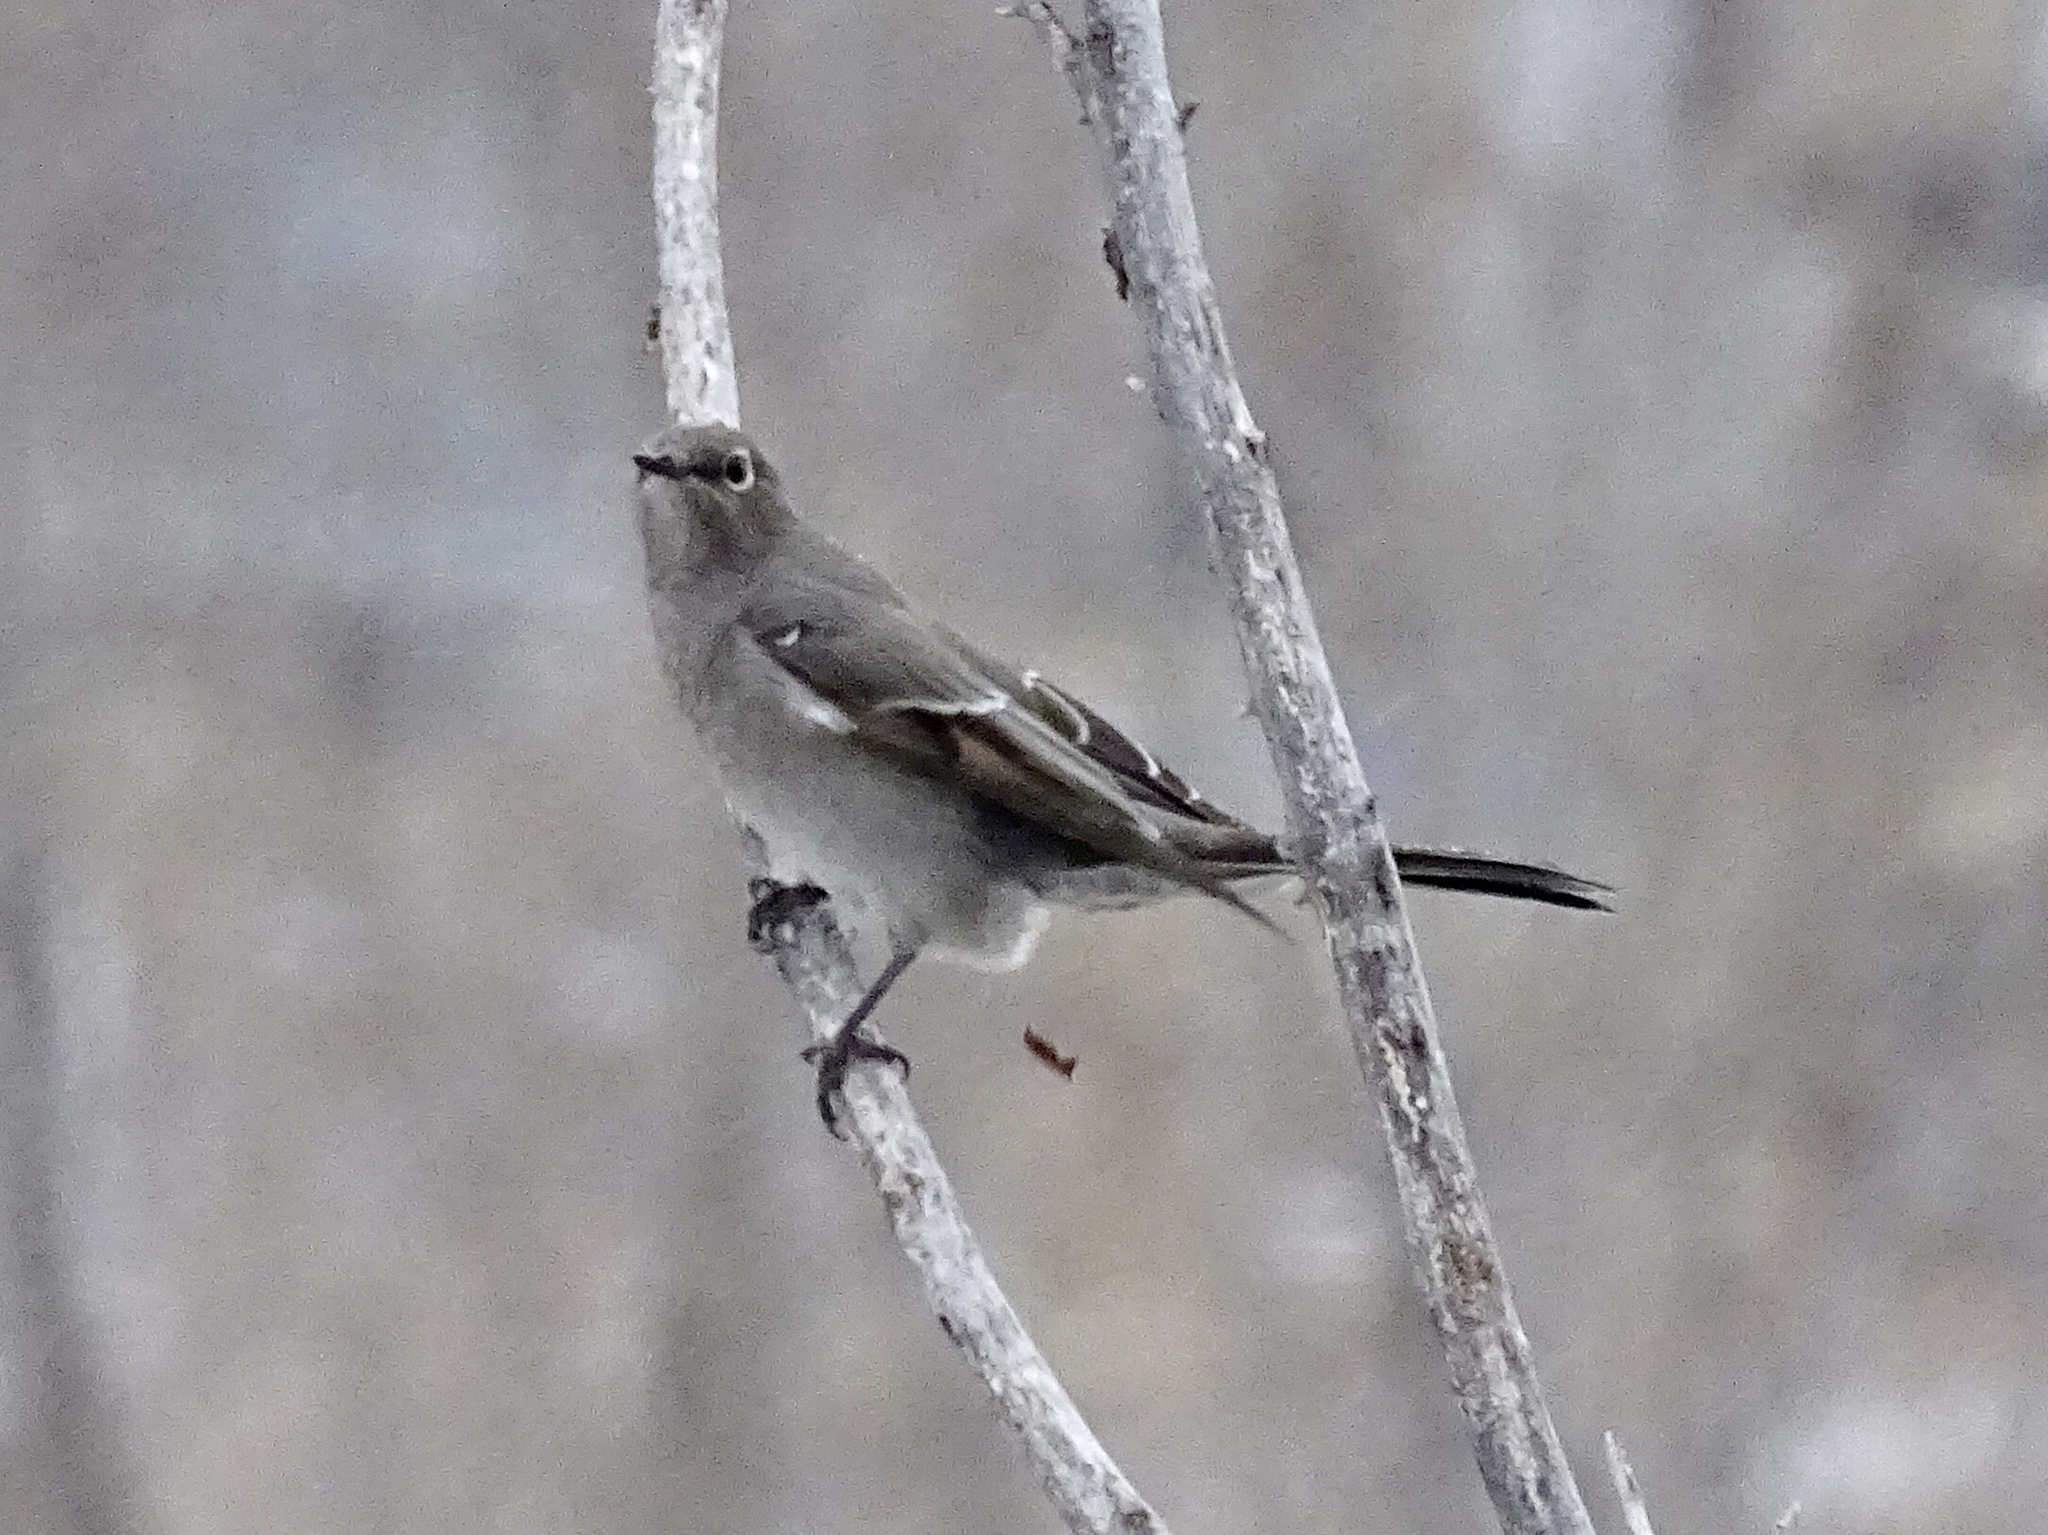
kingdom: Animalia
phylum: Chordata
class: Aves
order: Passeriformes
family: Turdidae
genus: Myadestes
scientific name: Myadestes townsendi
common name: Townsend's solitaire
